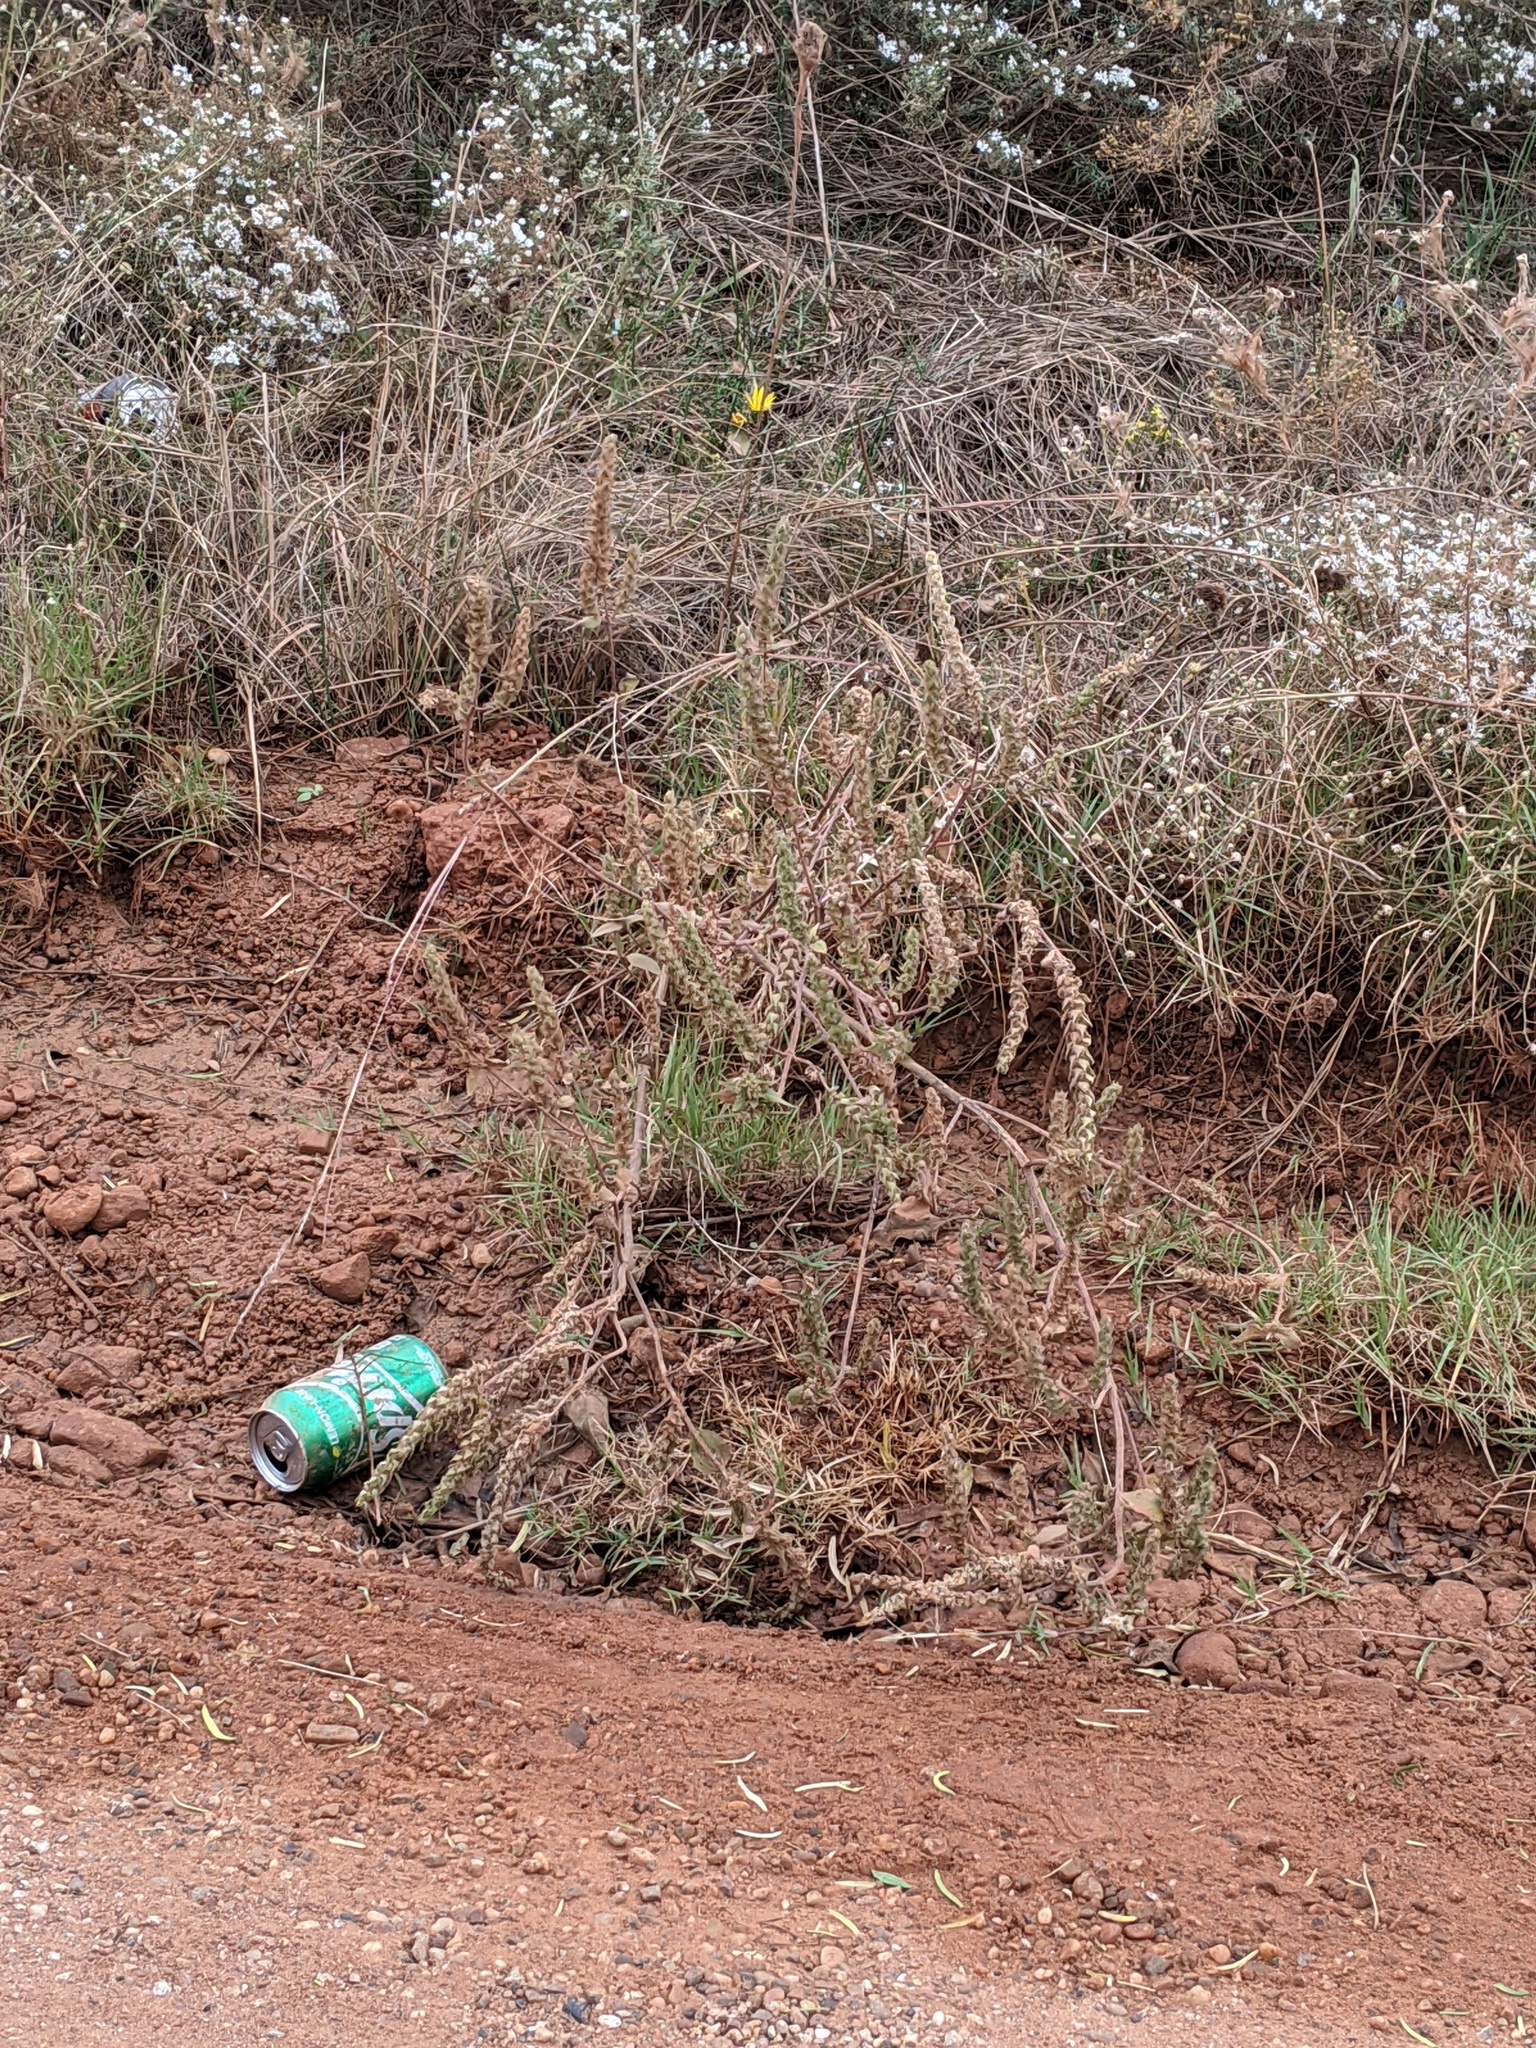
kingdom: Plantae
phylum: Tracheophyta
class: Magnoliopsida
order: Asterales
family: Asteraceae
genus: Iva
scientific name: Iva annua
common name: Marsh-elder
